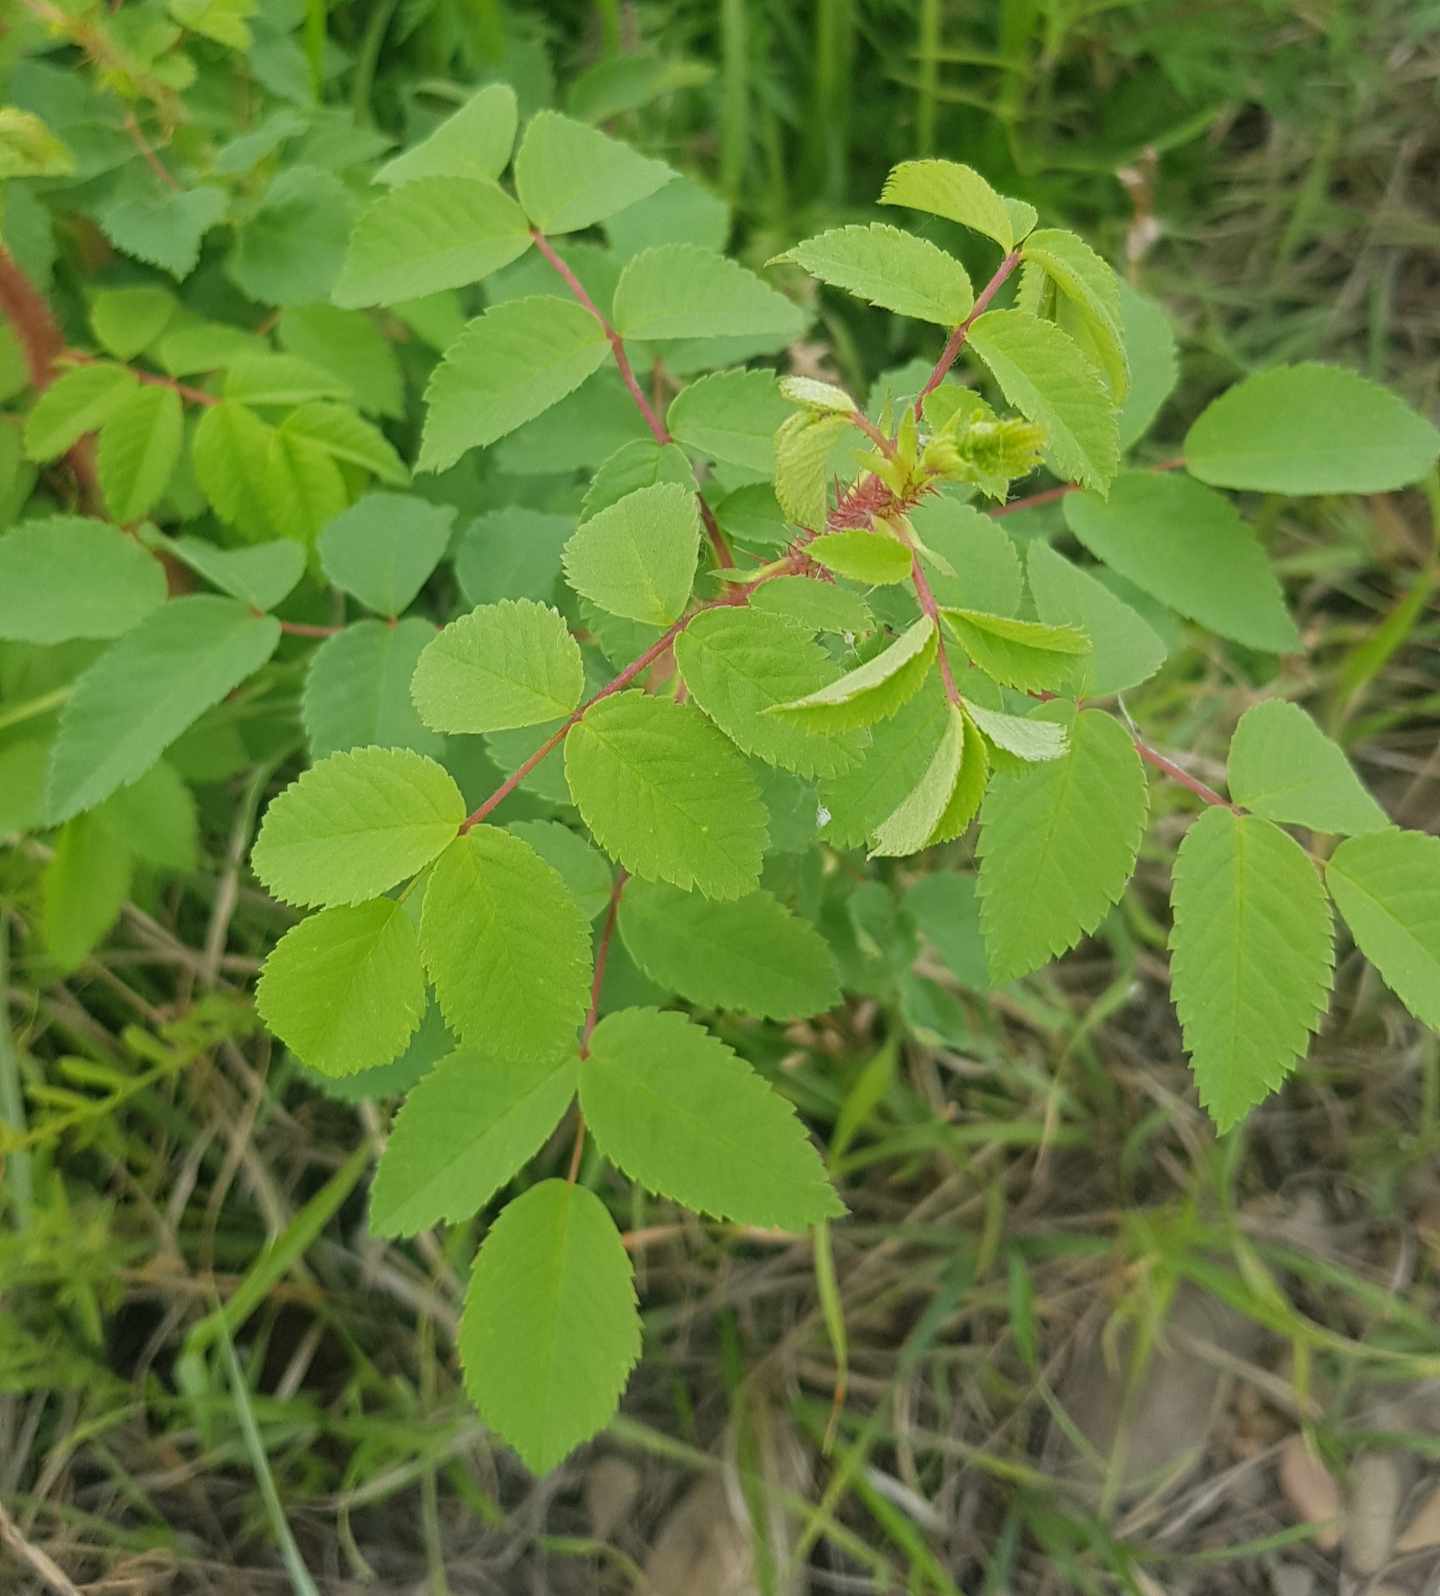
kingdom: Plantae
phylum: Tracheophyta
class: Magnoliopsida
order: Rosales
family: Rosaceae
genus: Rosa
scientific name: Rosa acicularis
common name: Prickly rose
